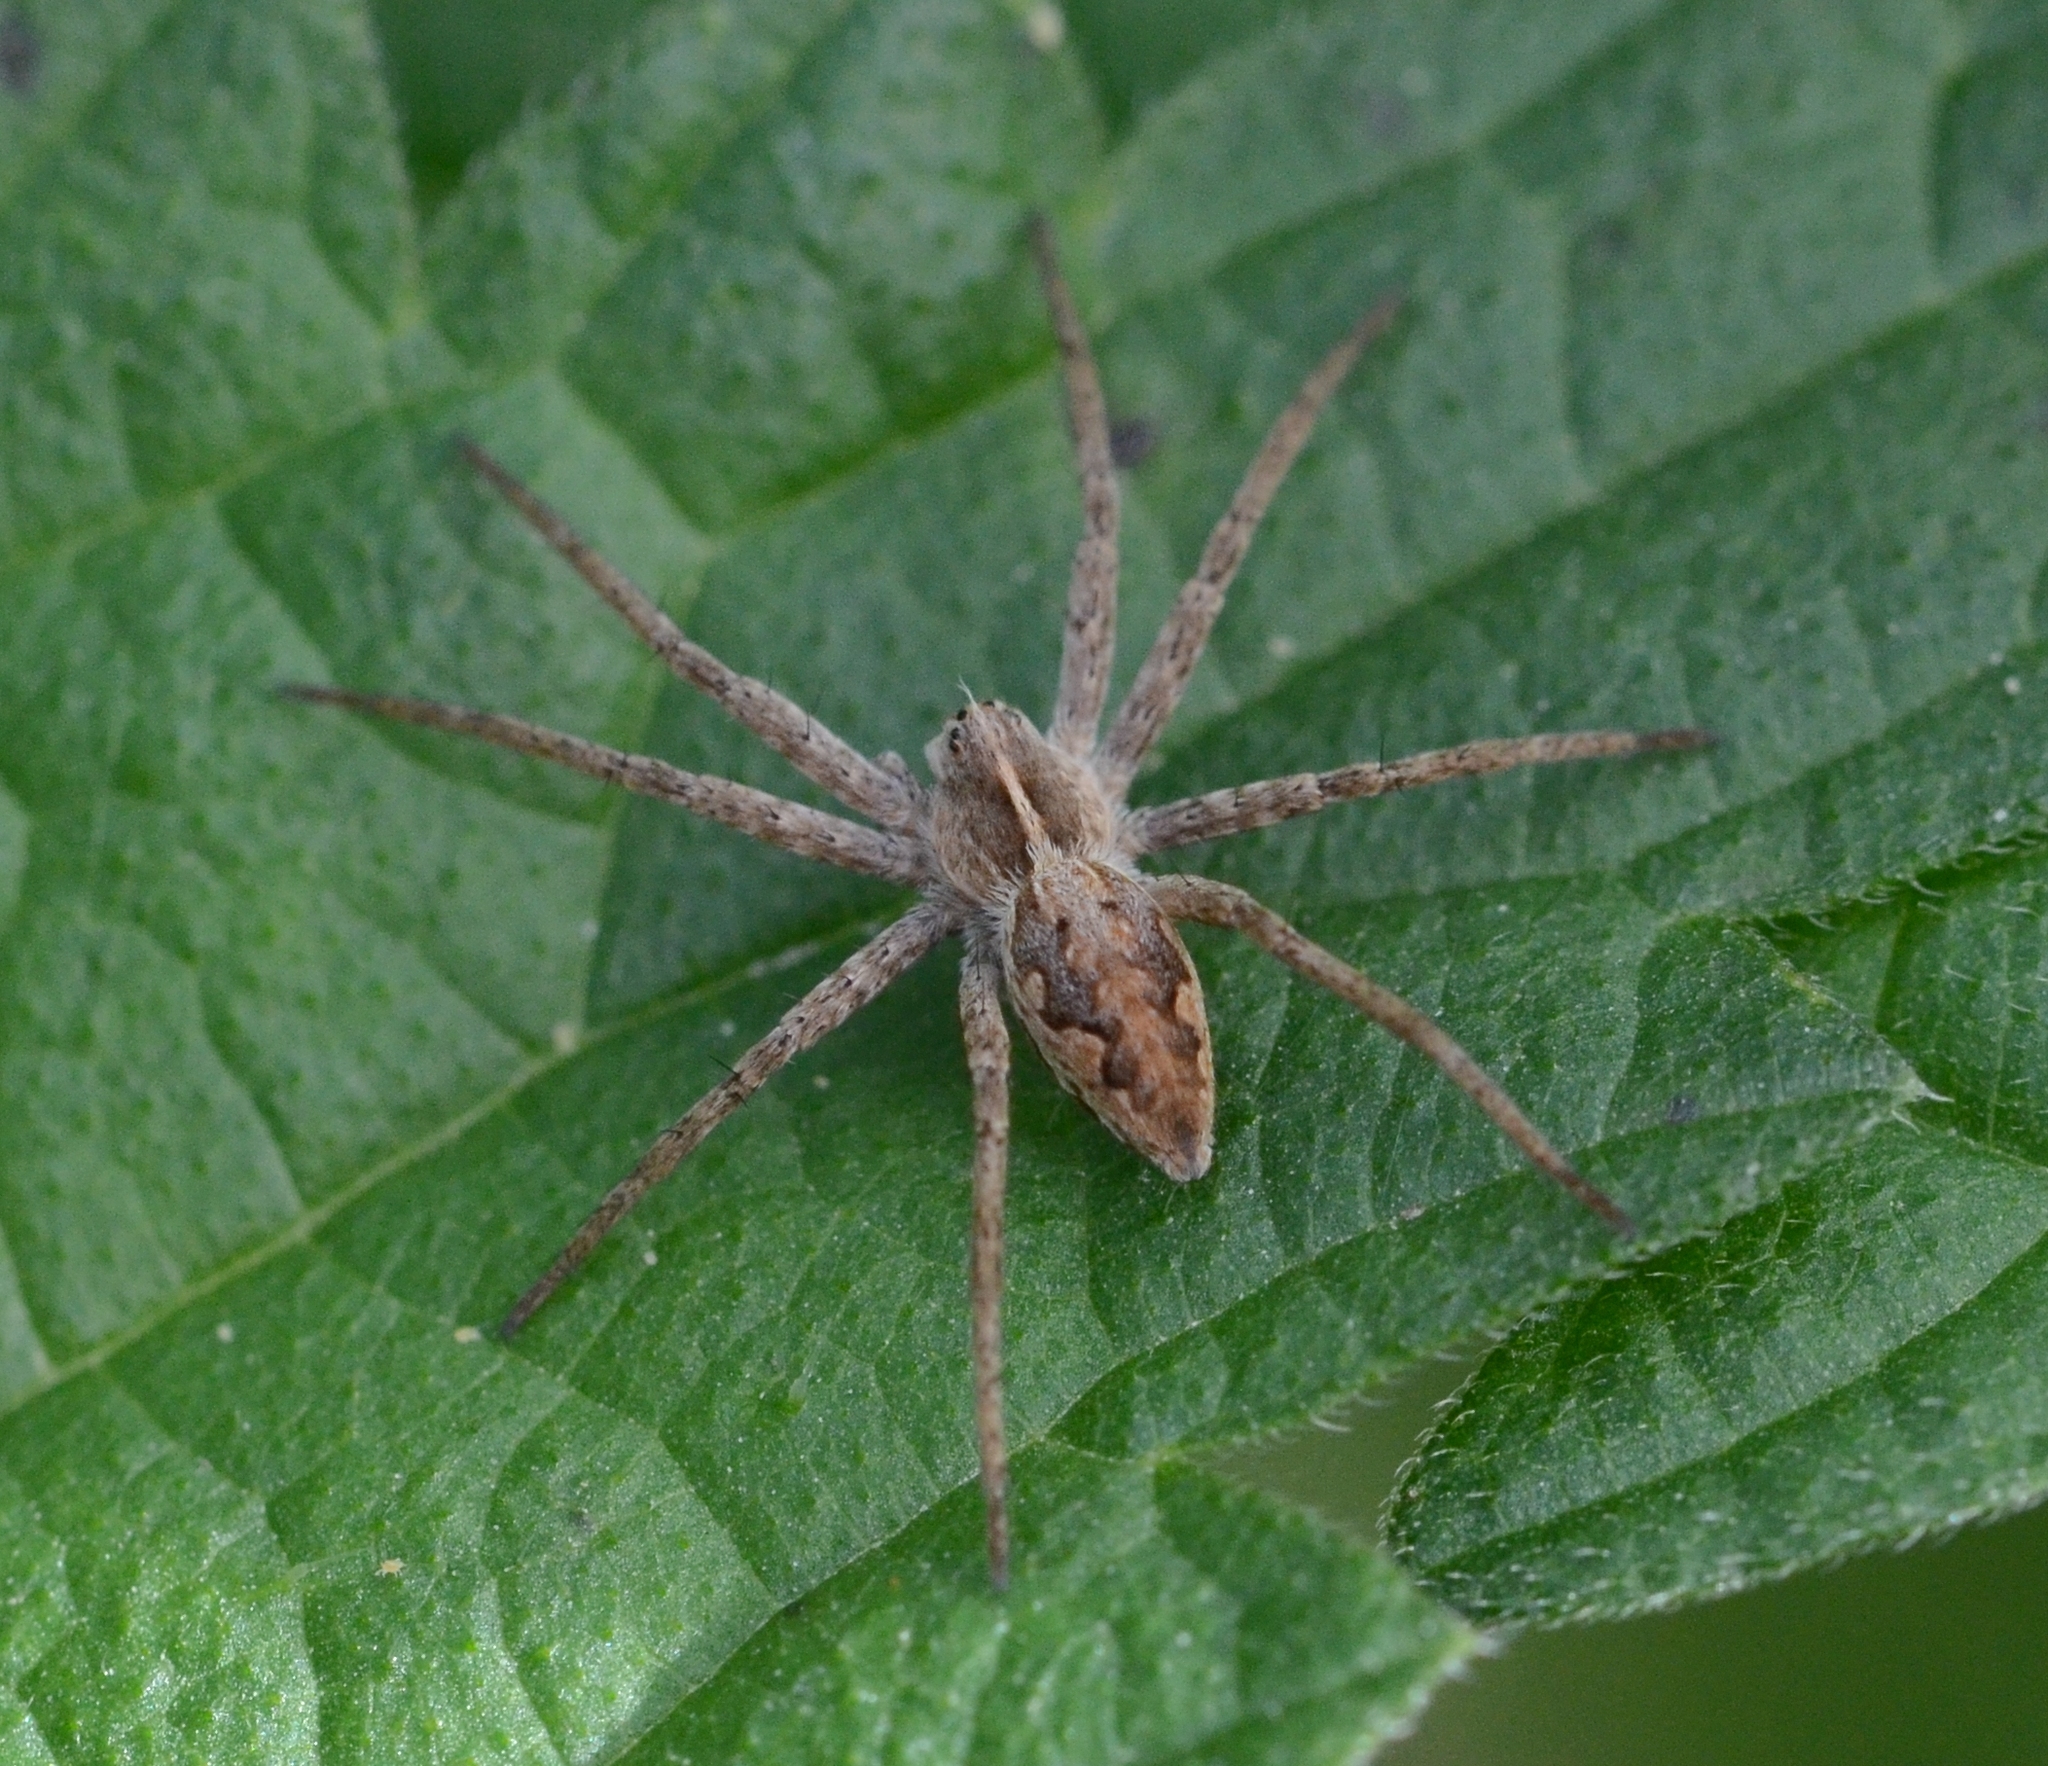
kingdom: Animalia
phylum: Arthropoda
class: Arachnida
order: Araneae
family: Pisauridae
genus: Pisaura
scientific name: Pisaura mirabilis
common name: Tent spider
